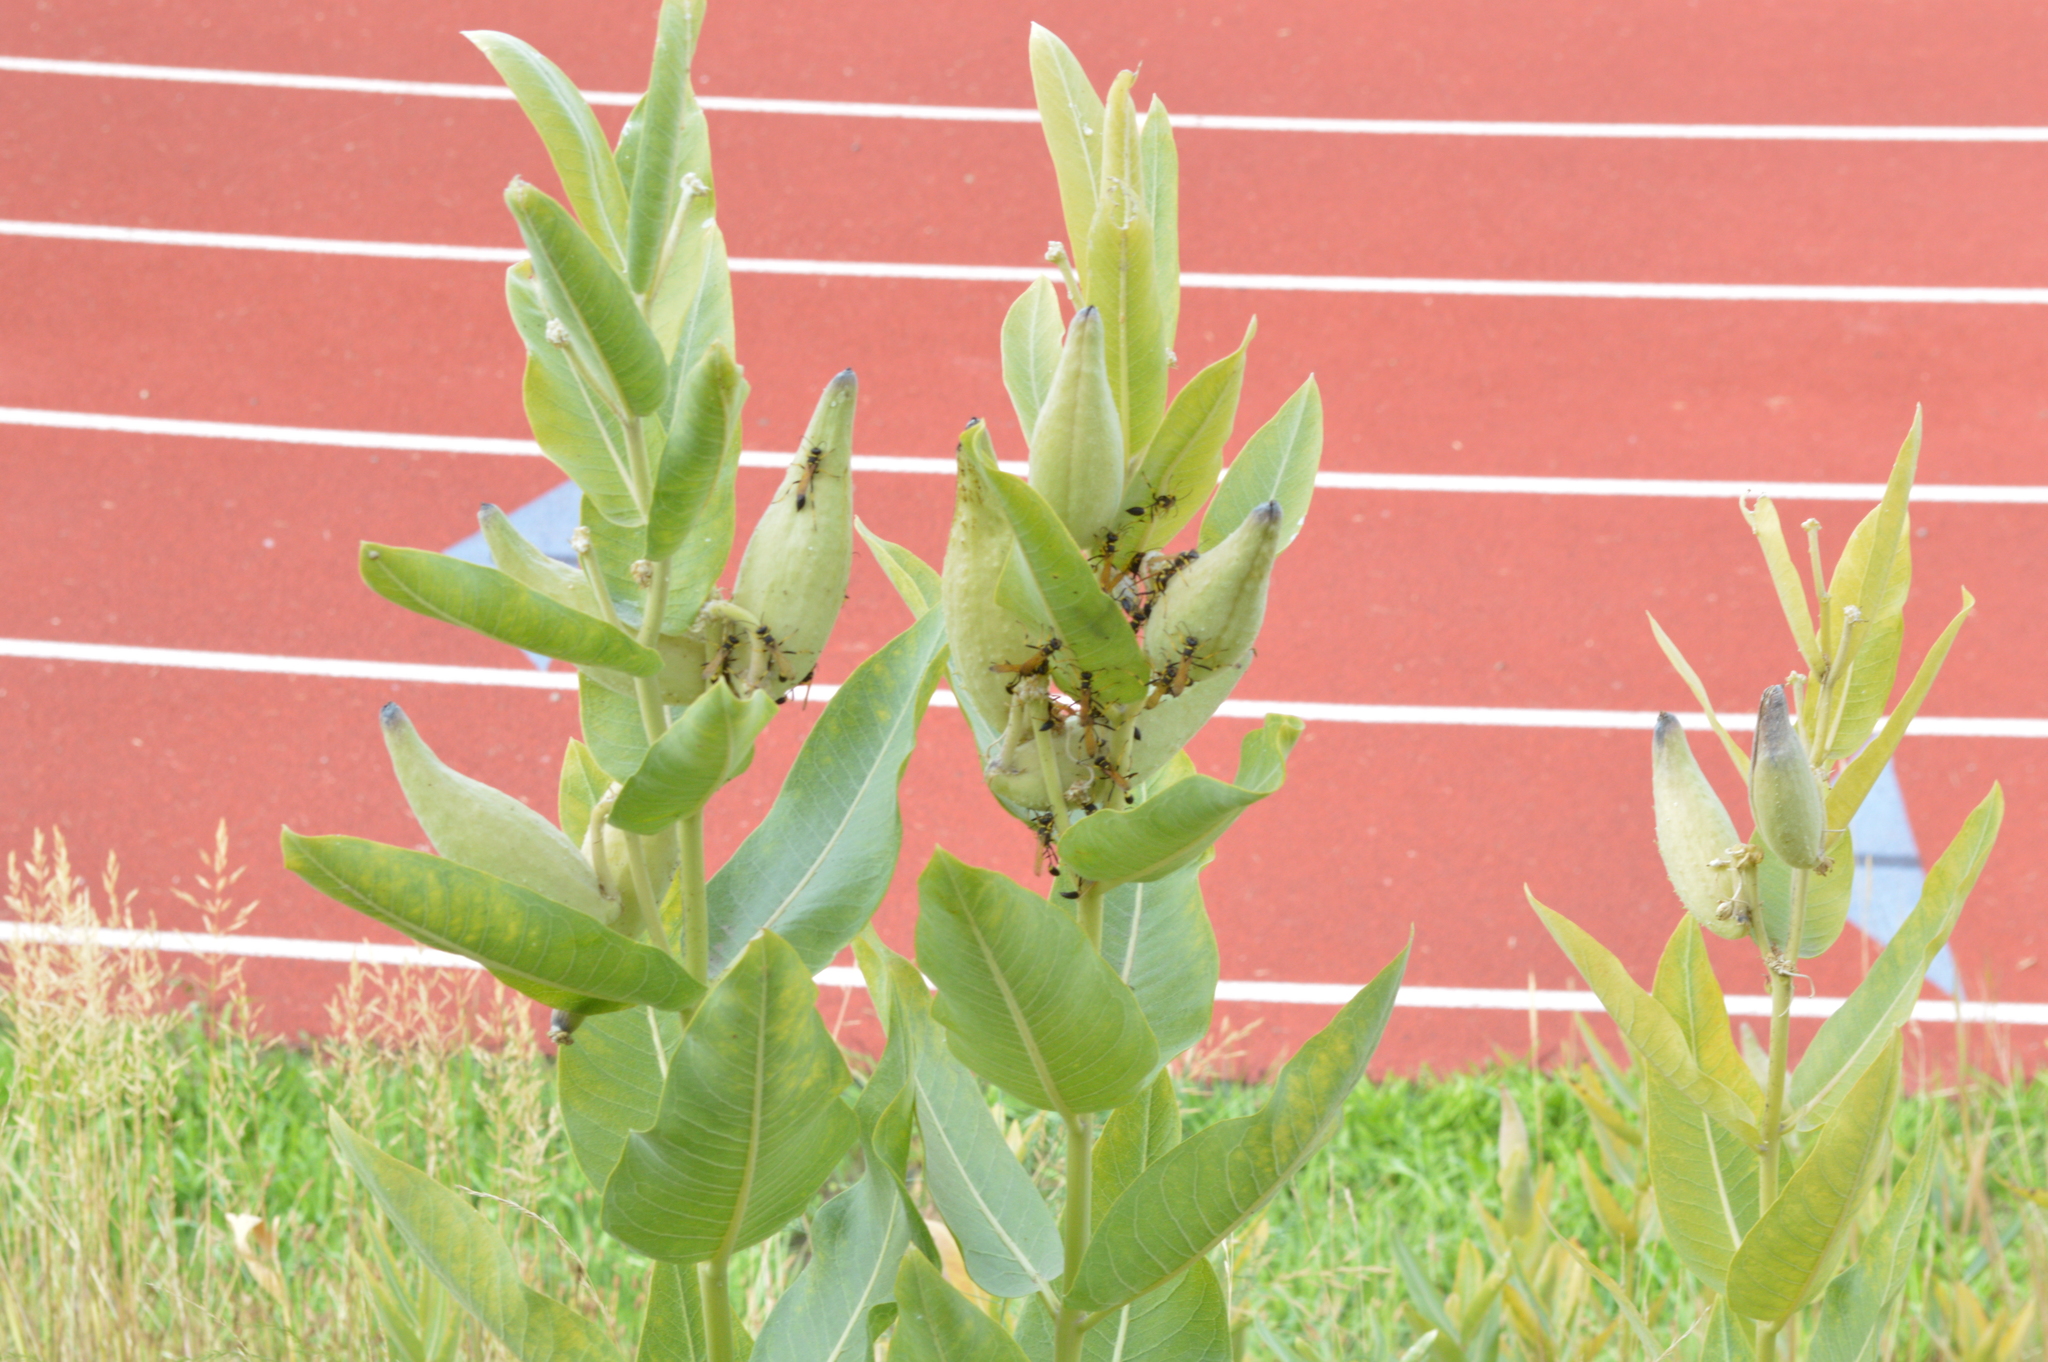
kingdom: Animalia
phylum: Arthropoda
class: Insecta
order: Hymenoptera
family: Sphecidae
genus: Sceliphron
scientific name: Sceliphron caementarium
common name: Mud dauber
